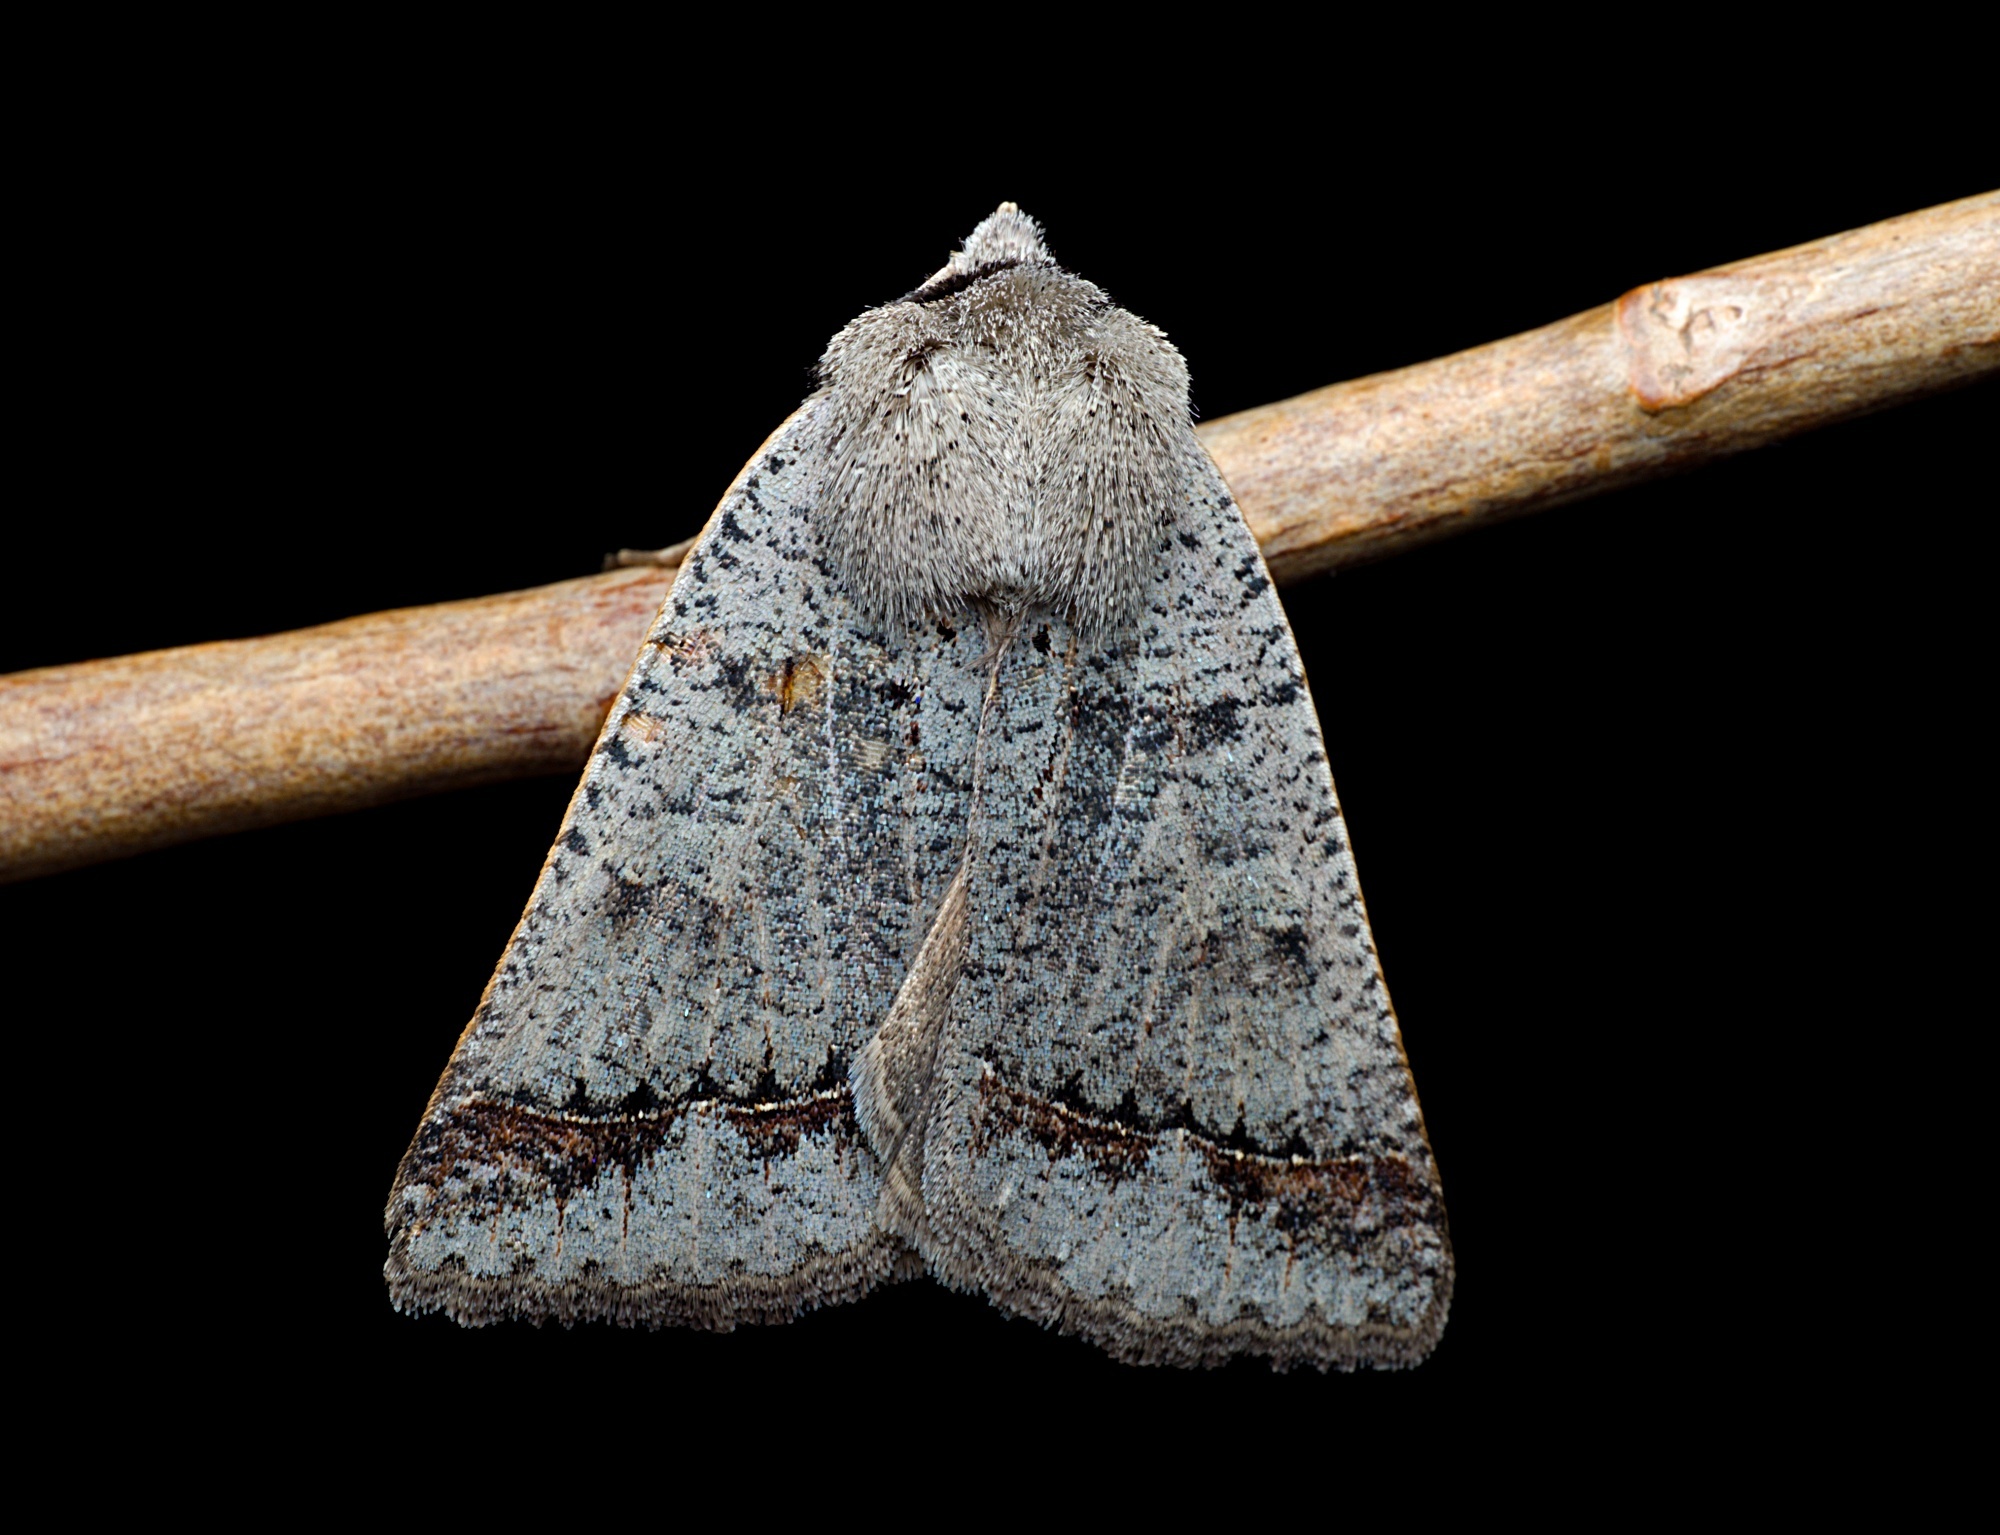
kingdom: Animalia
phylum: Arthropoda
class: Insecta
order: Lepidoptera
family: Erebidae
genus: Pantydia
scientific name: Pantydia sparsa
